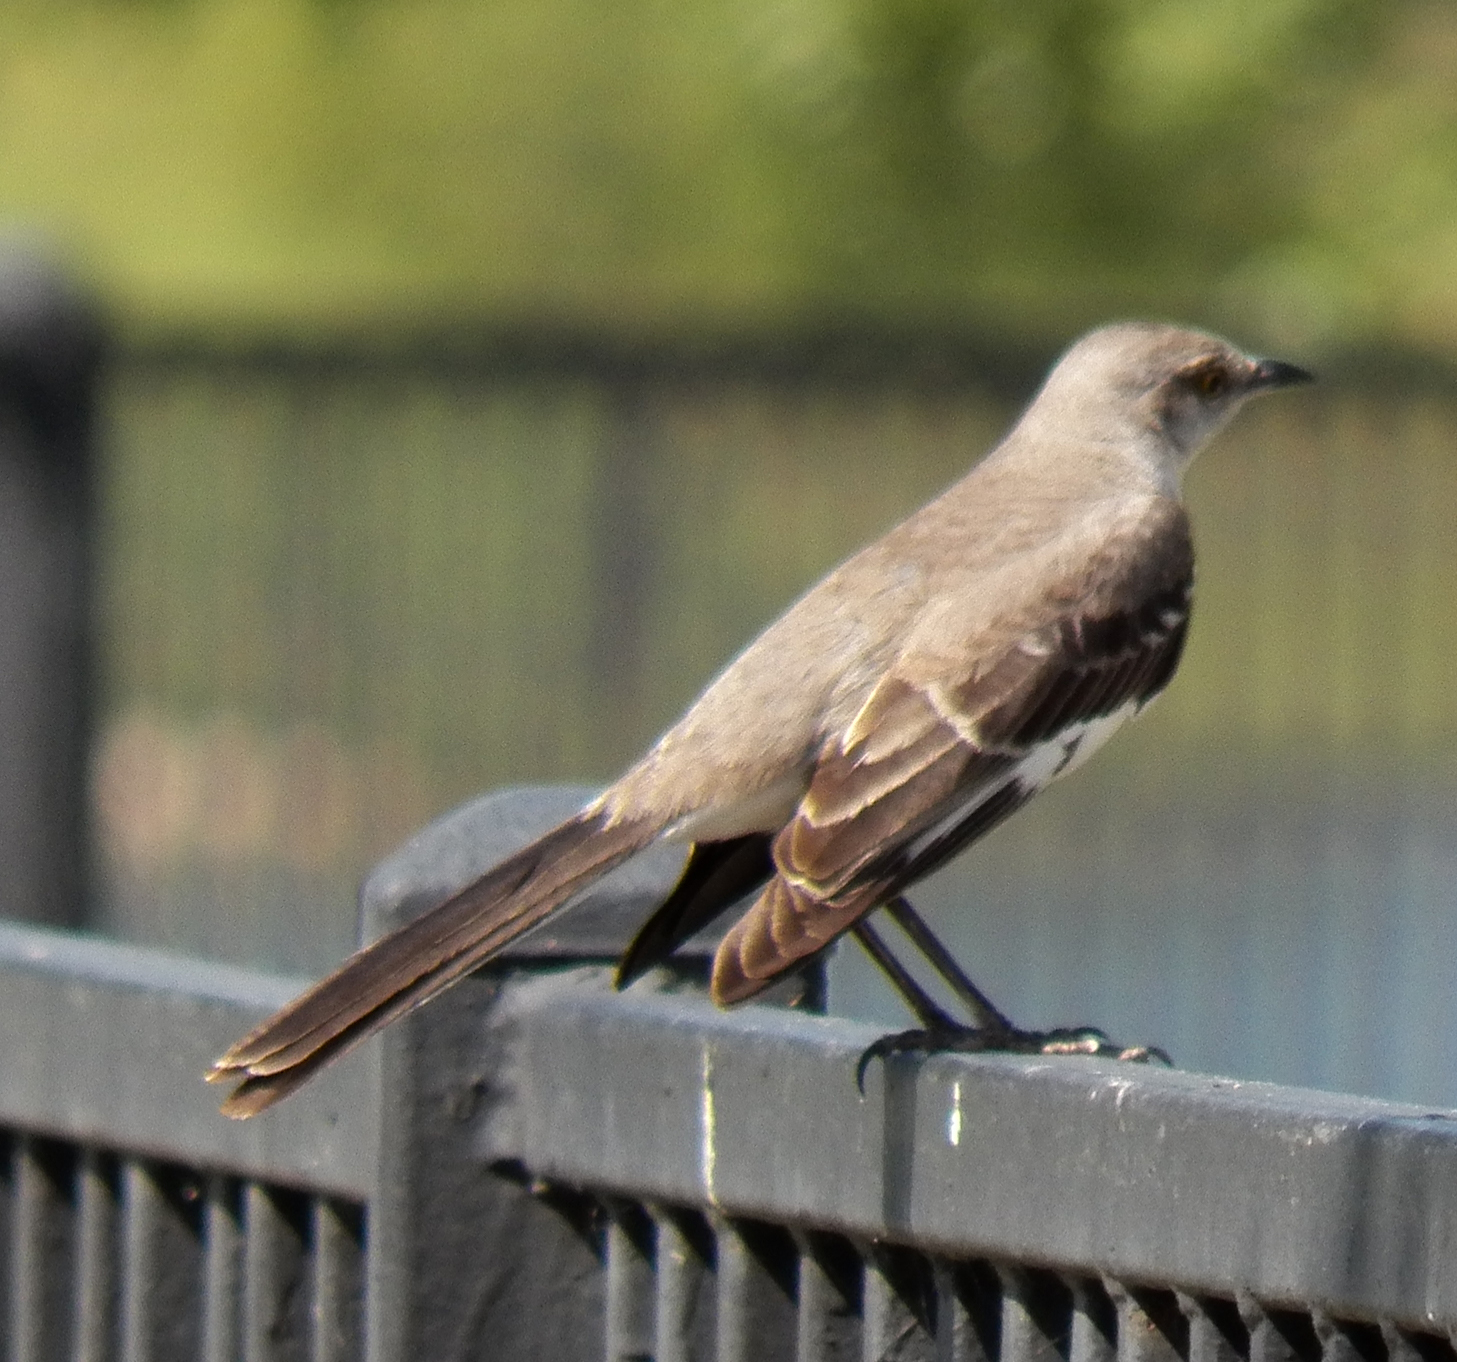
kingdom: Animalia
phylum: Chordata
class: Aves
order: Passeriformes
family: Mimidae
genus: Mimus
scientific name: Mimus polyglottos
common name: Northern mockingbird
